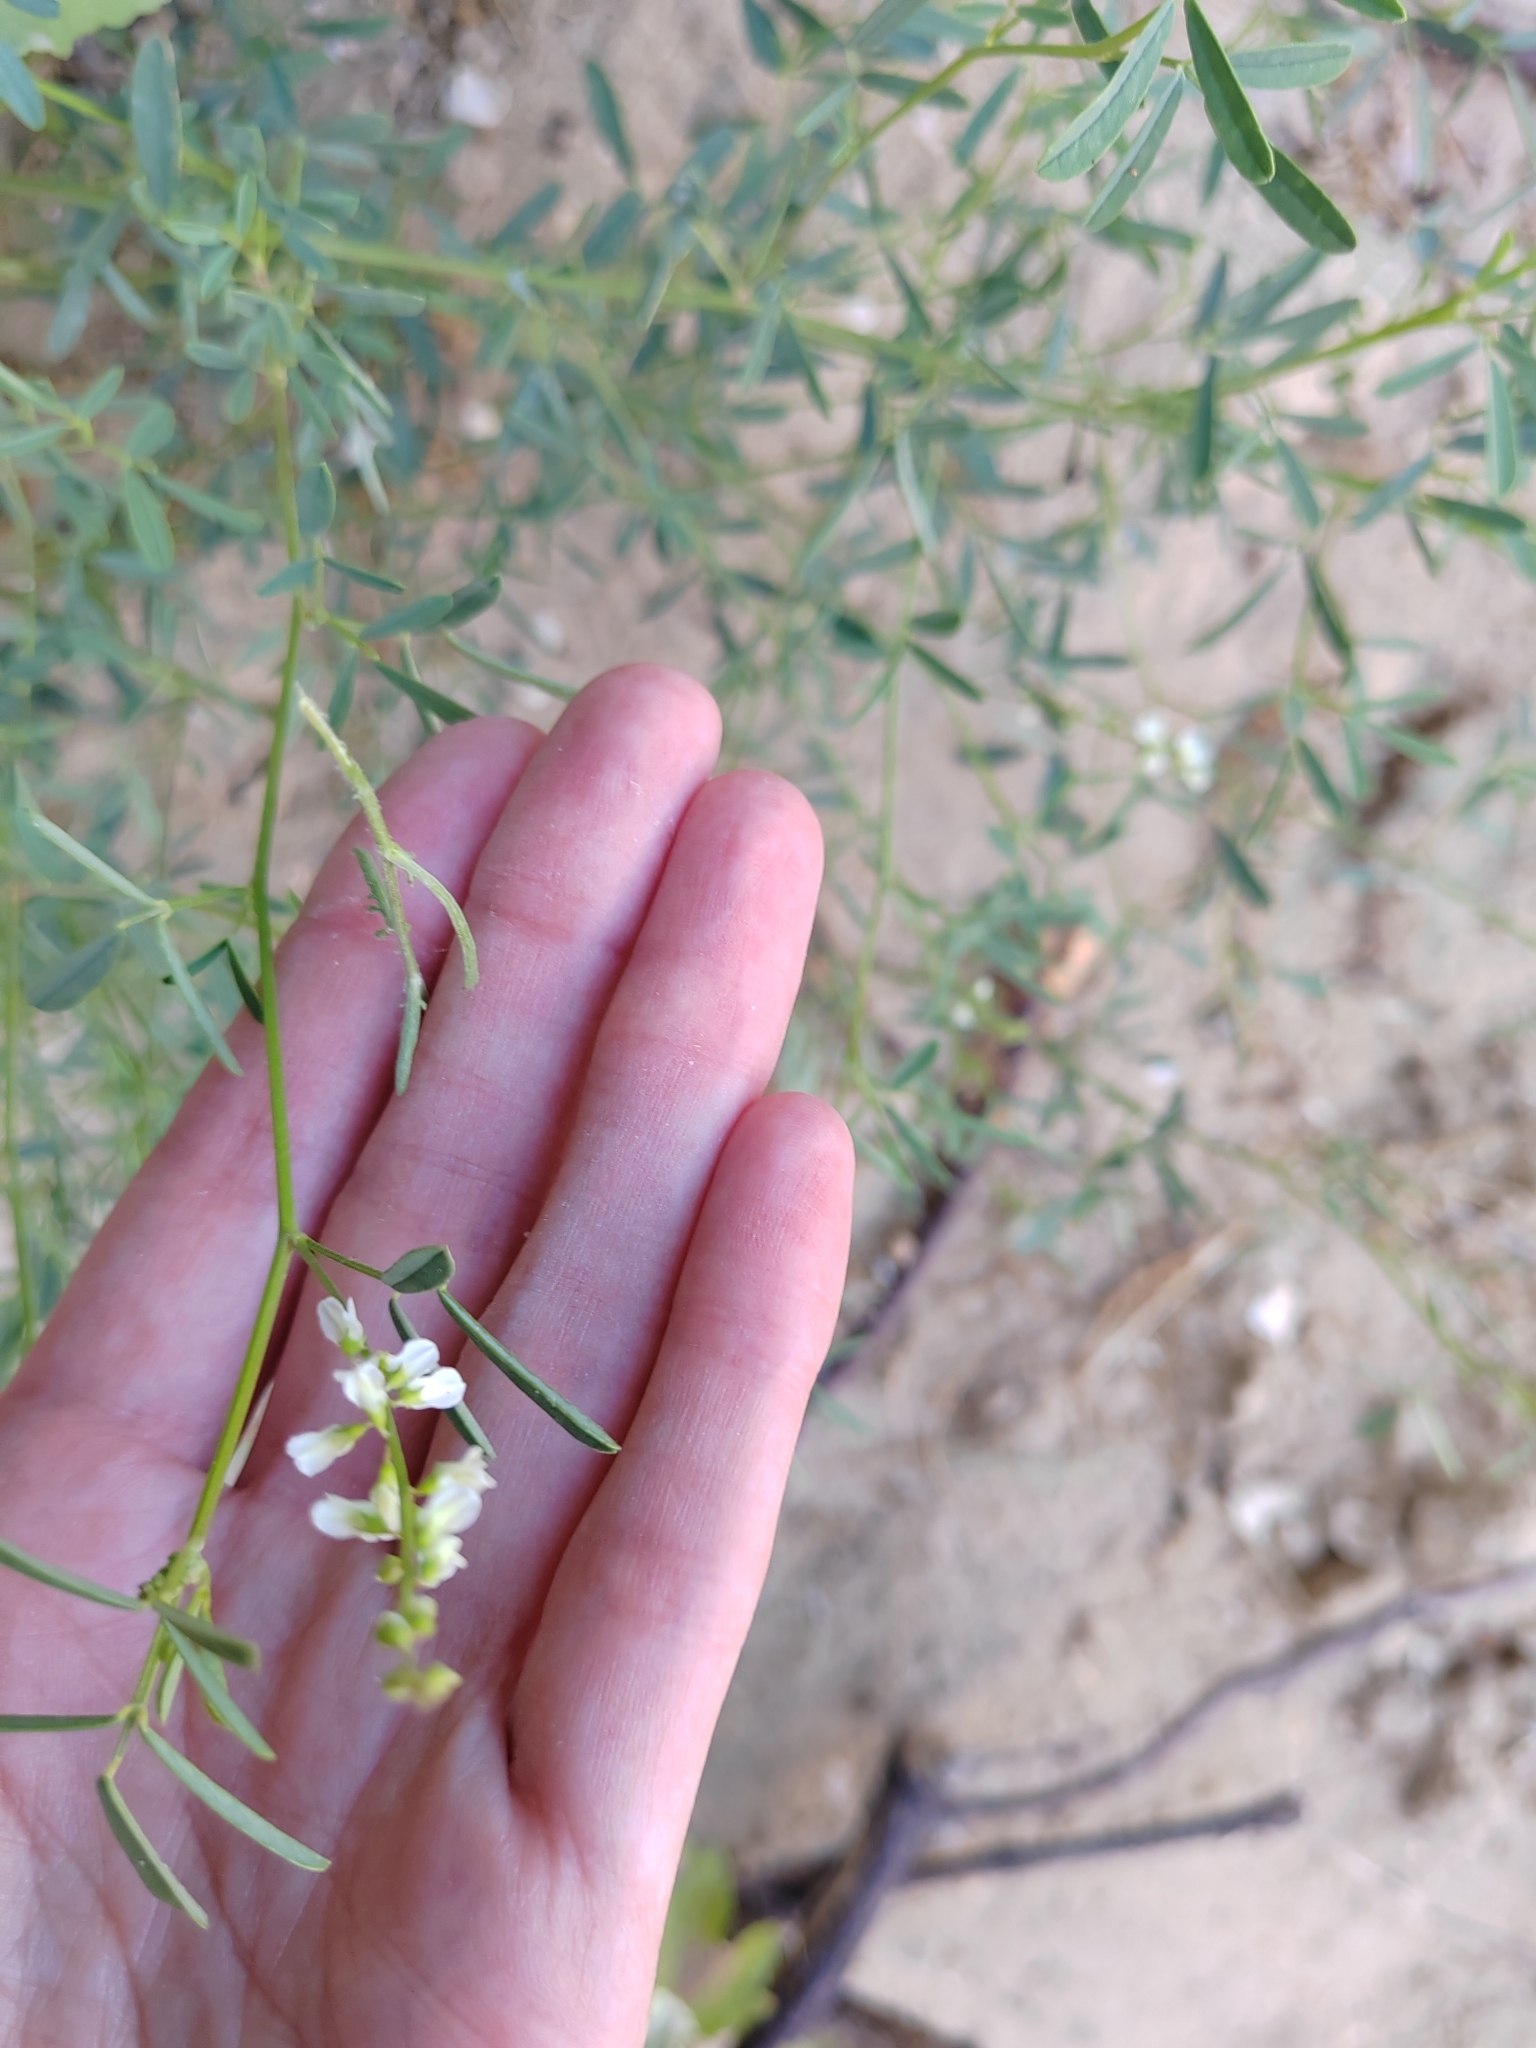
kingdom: Plantae
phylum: Tracheophyta
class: Magnoliopsida
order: Fabales
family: Fabaceae
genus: Melilotus
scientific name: Melilotus albus
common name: White melilot
